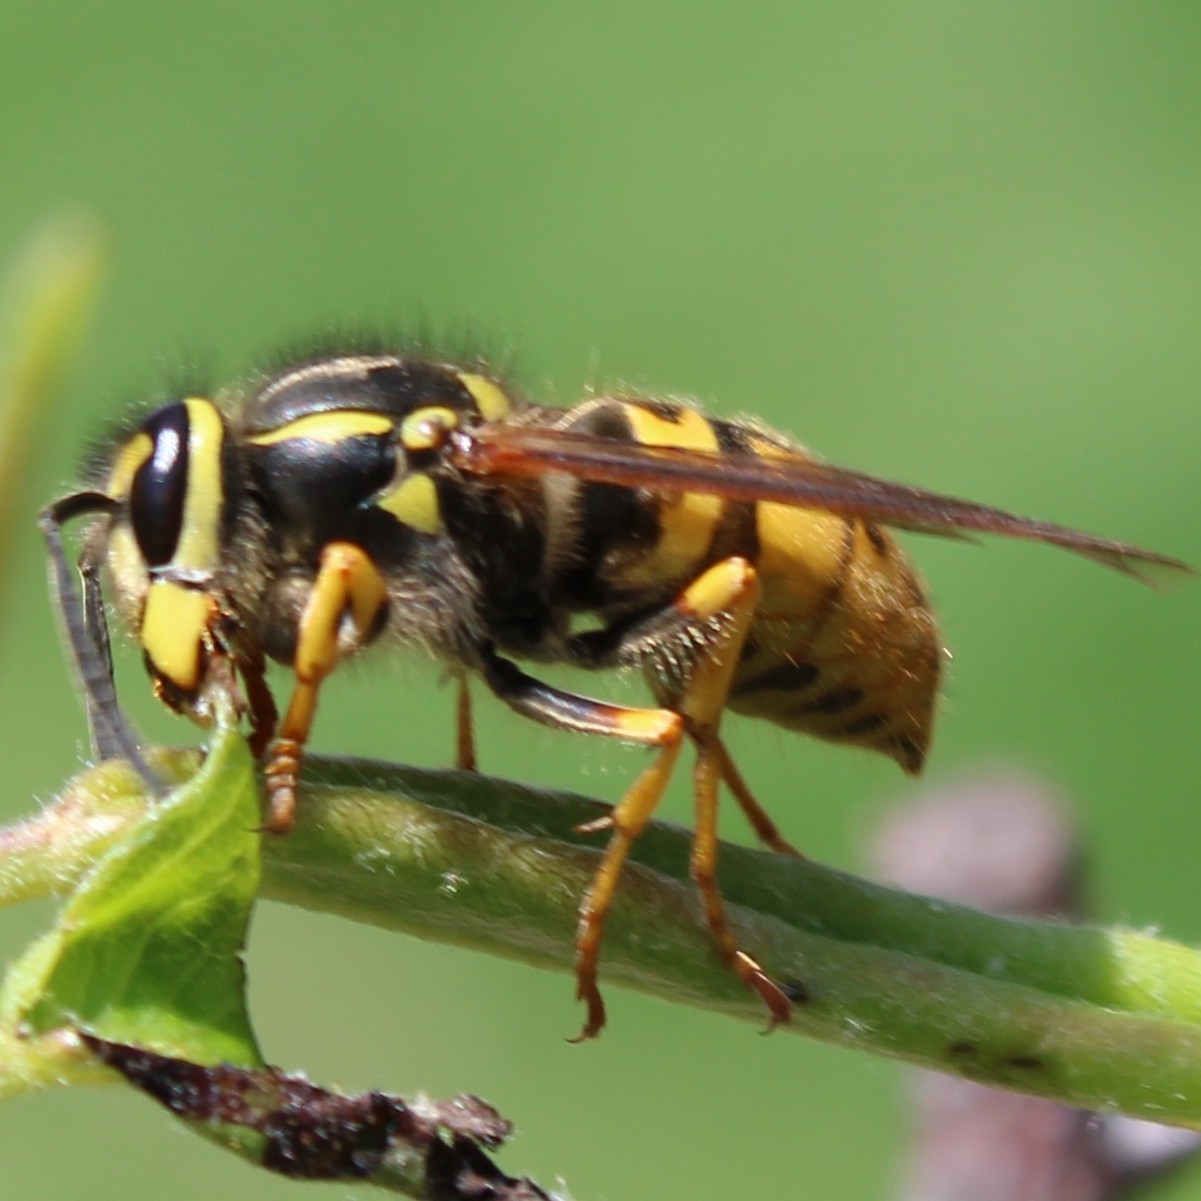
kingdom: Animalia
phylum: Arthropoda
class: Insecta
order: Hymenoptera
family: Vespidae
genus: Vespula
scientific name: Vespula germanica
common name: German wasp
